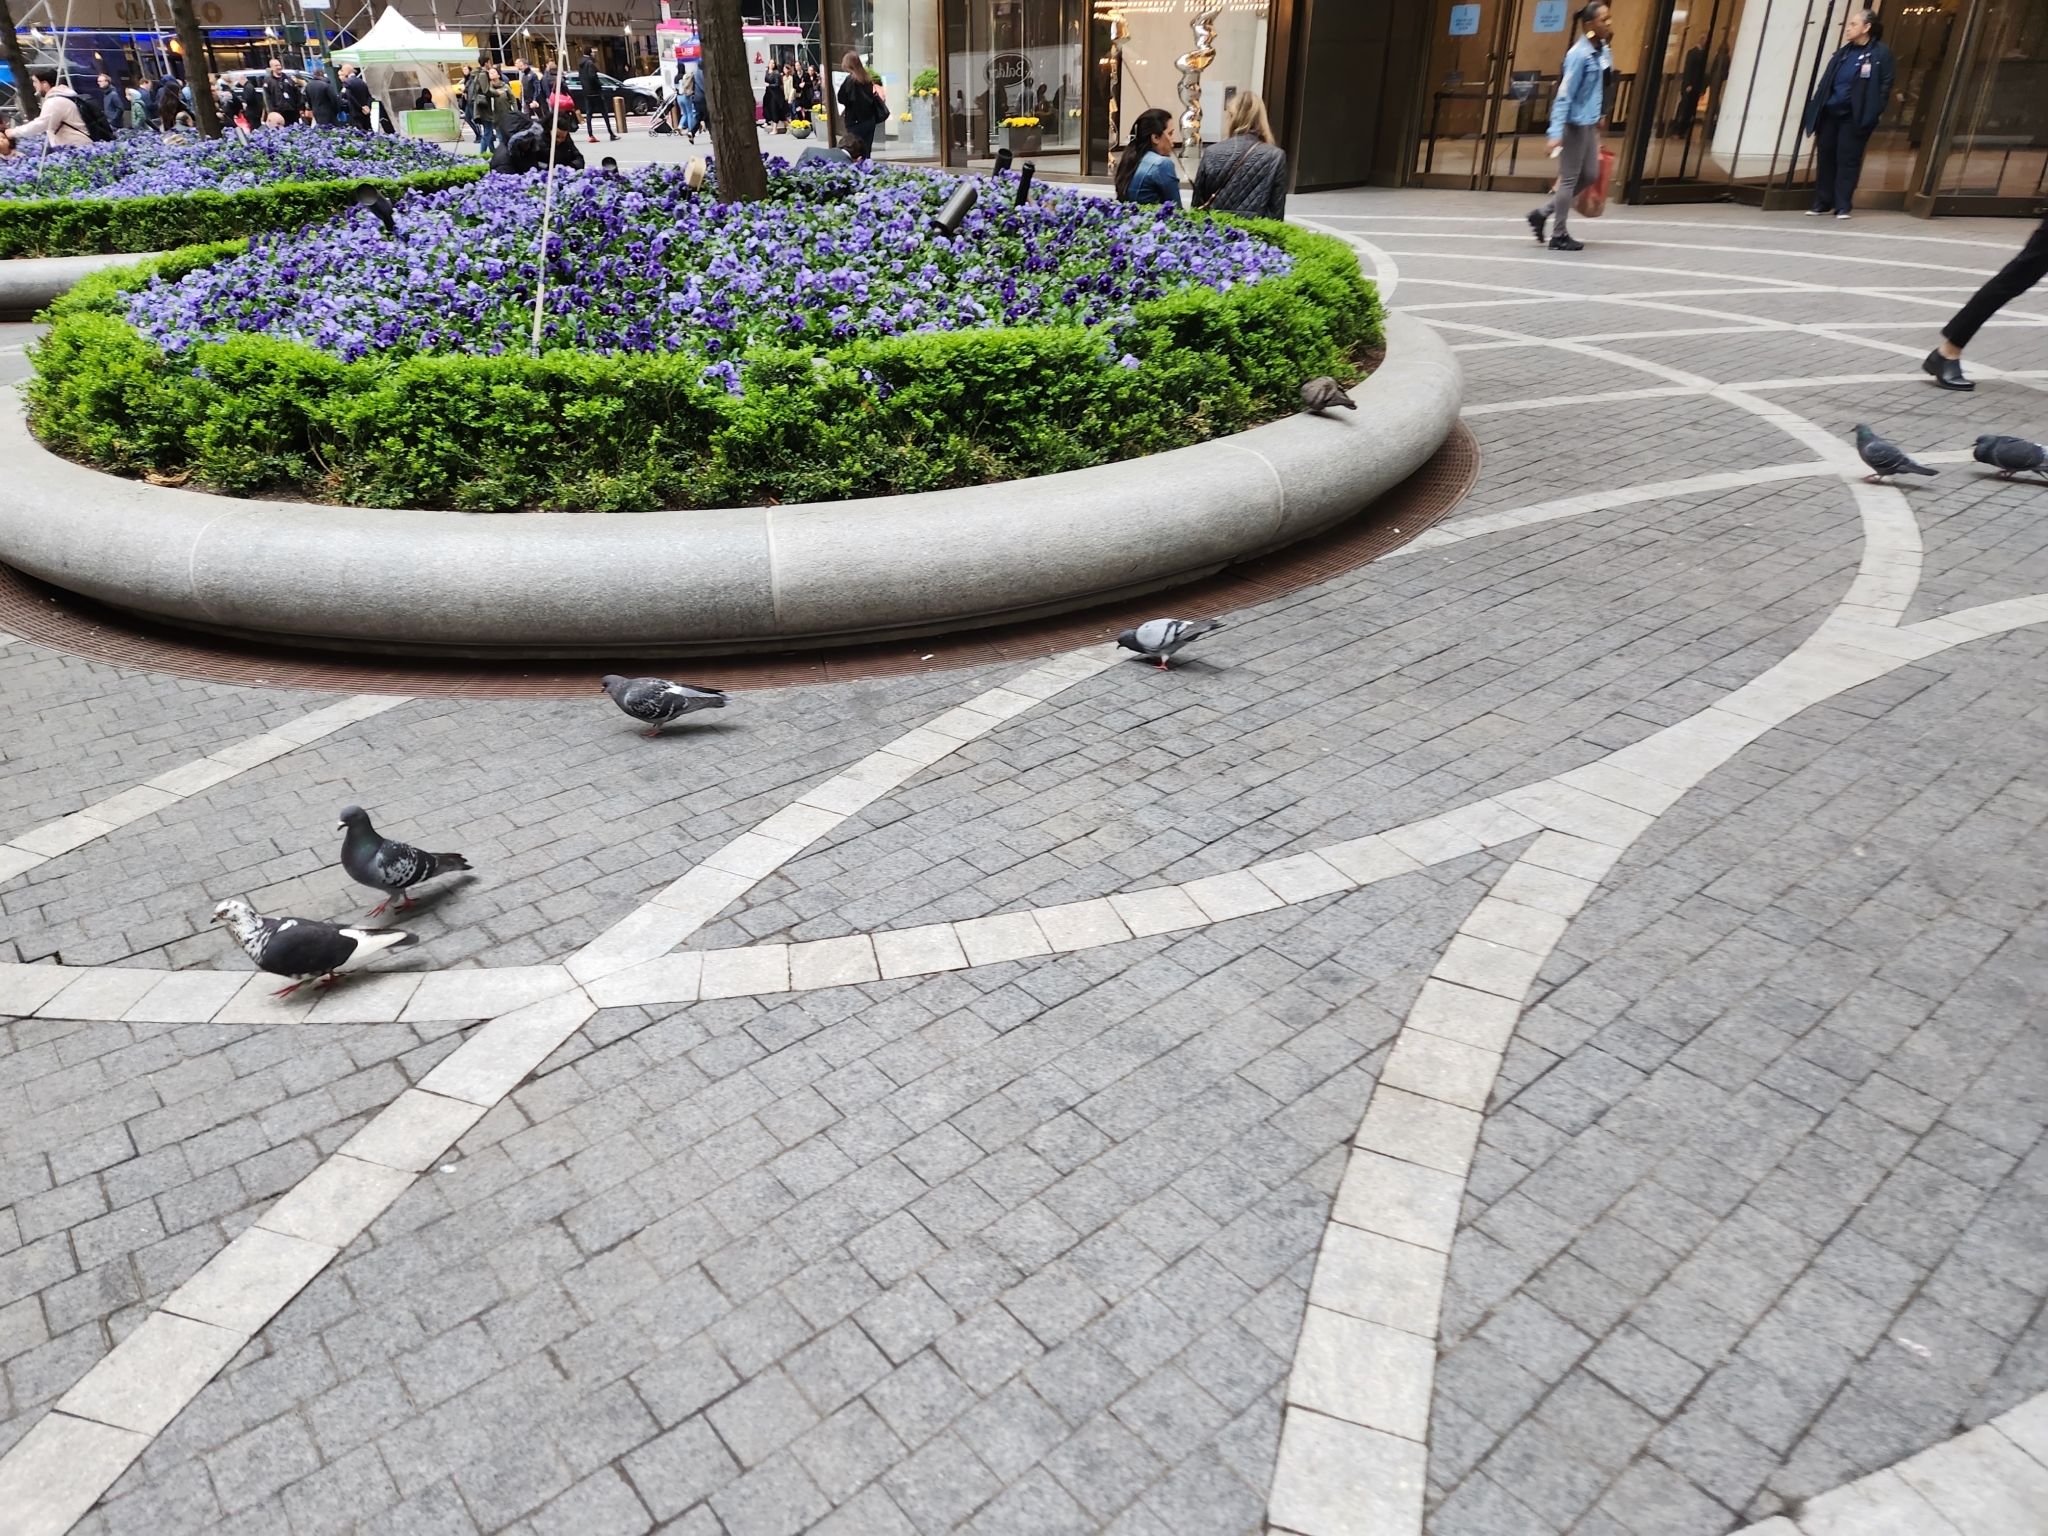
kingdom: Animalia
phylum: Chordata
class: Aves
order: Columbiformes
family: Columbidae
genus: Columba
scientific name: Columba livia
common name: Rock pigeon
